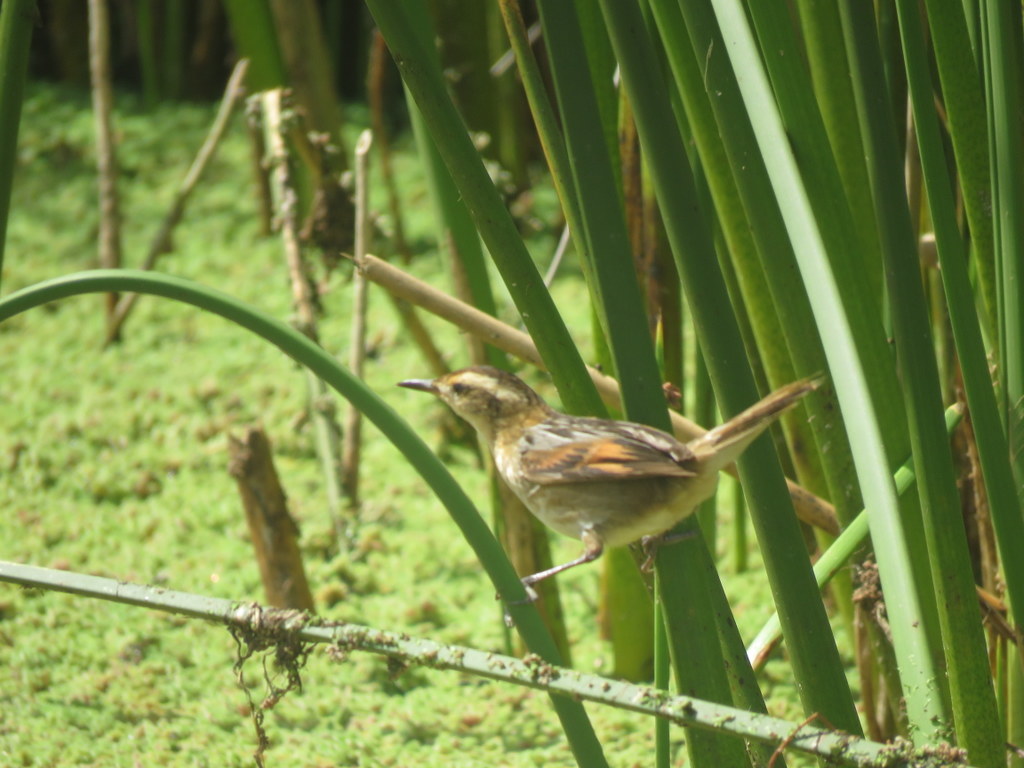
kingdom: Animalia
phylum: Chordata
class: Aves
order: Passeriformes
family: Furnariidae
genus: Phleocryptes
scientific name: Phleocryptes melanops
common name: Wren-like rushbird
